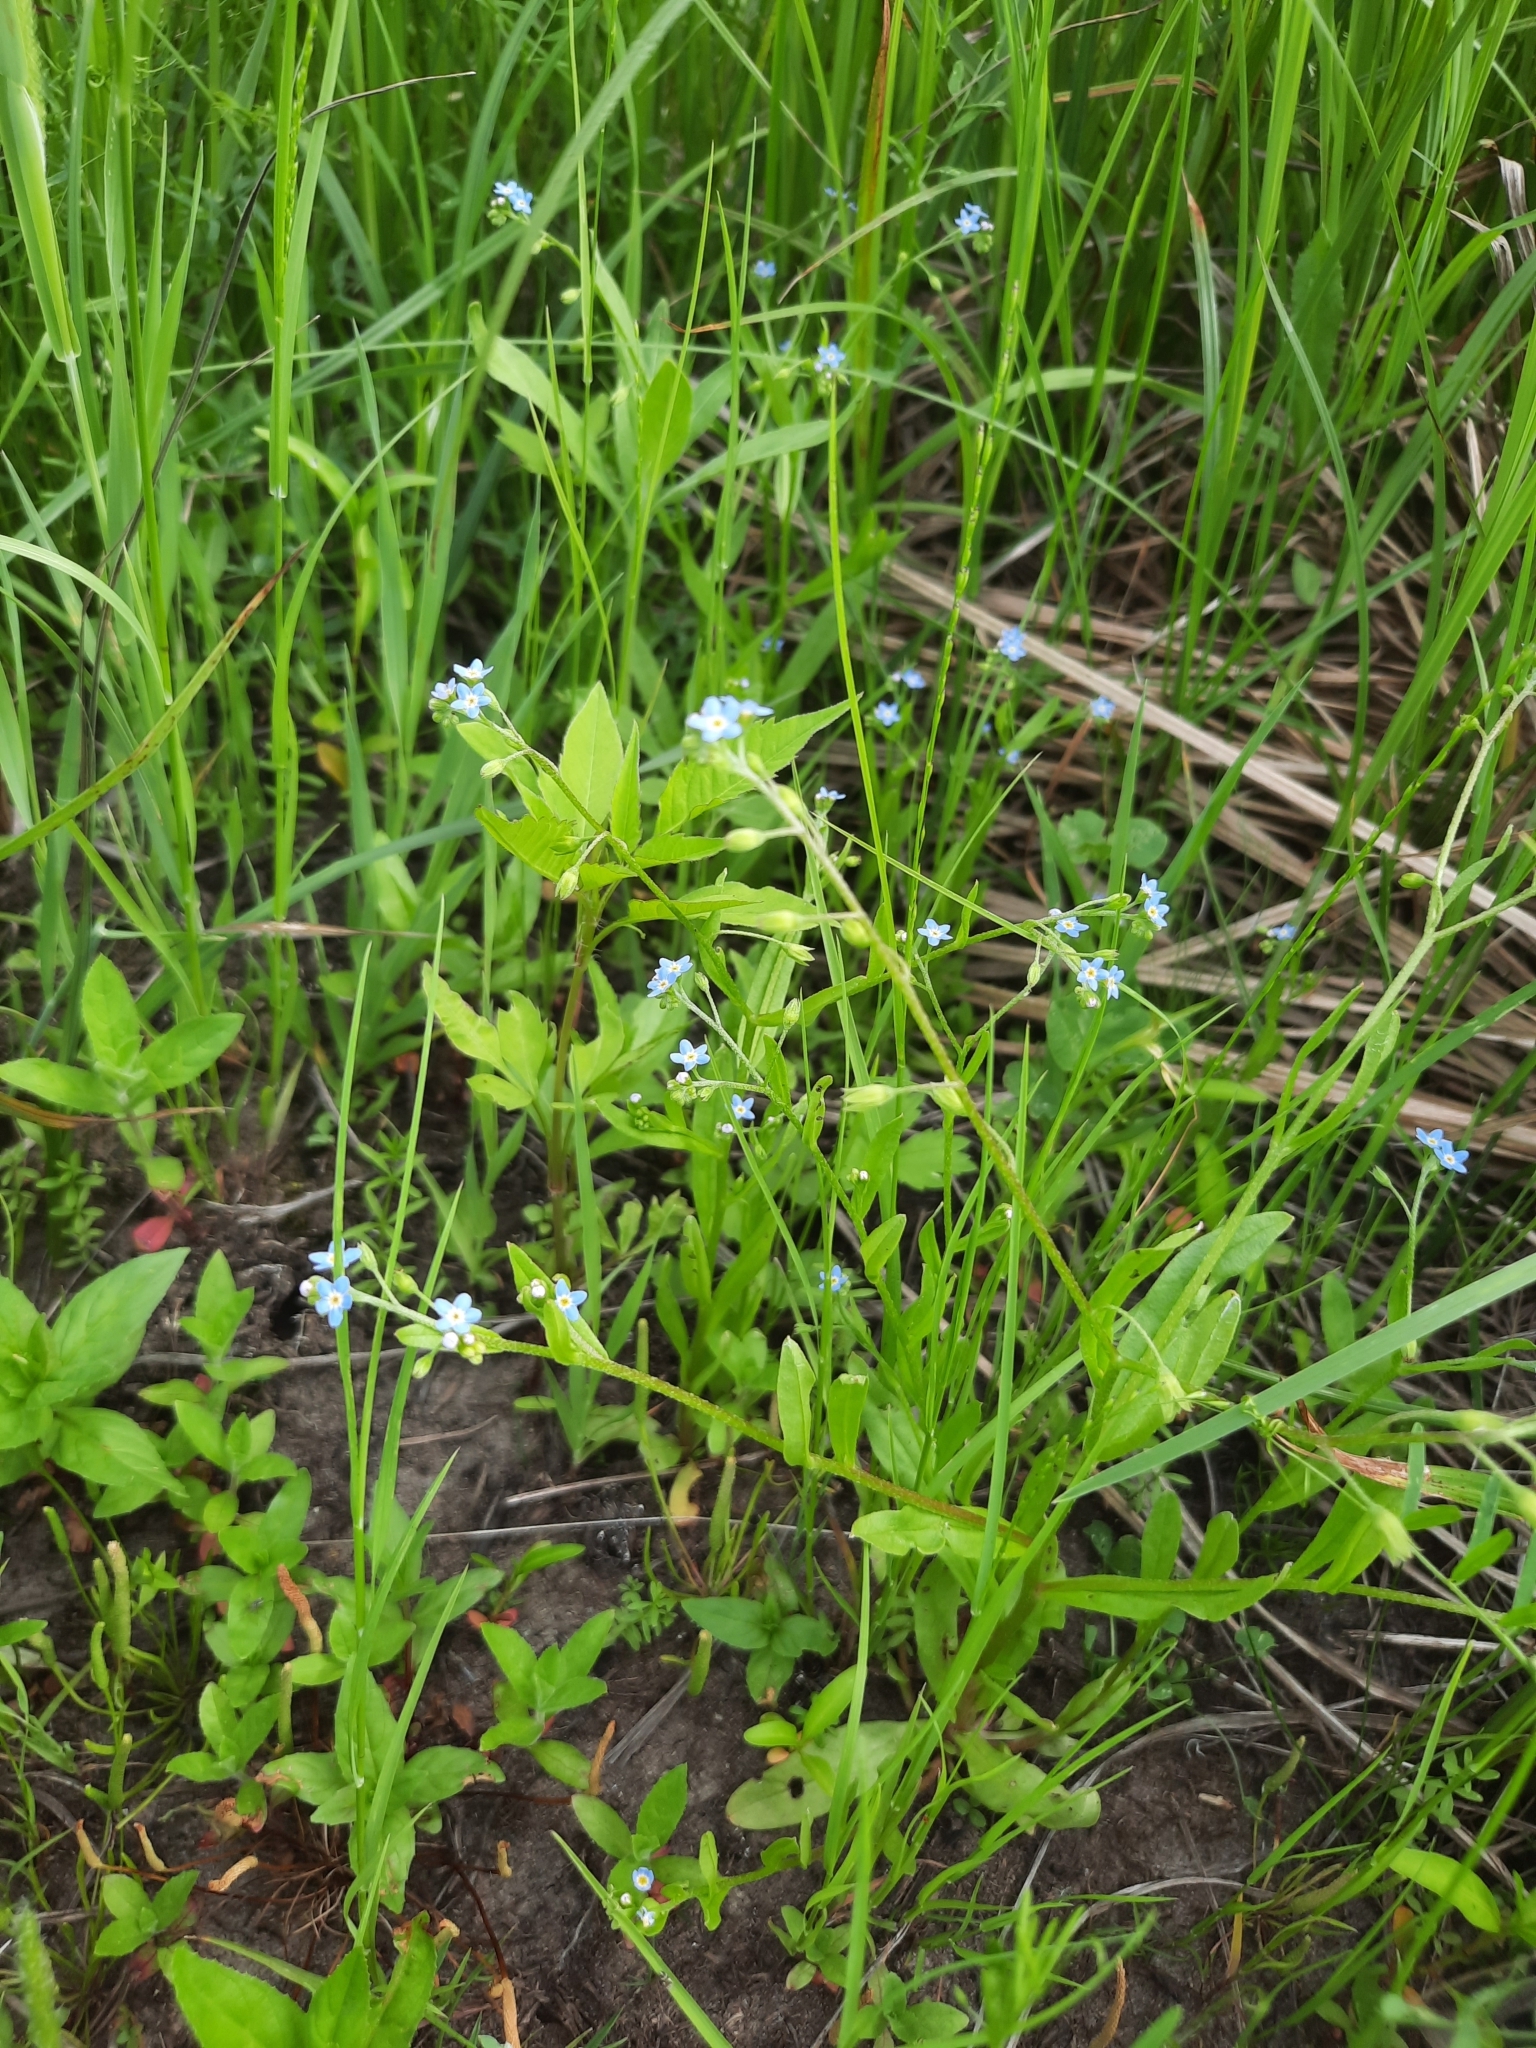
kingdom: Plantae
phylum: Tracheophyta
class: Magnoliopsida
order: Boraginales
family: Boraginaceae
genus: Myosotis
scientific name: Myosotis laxa
